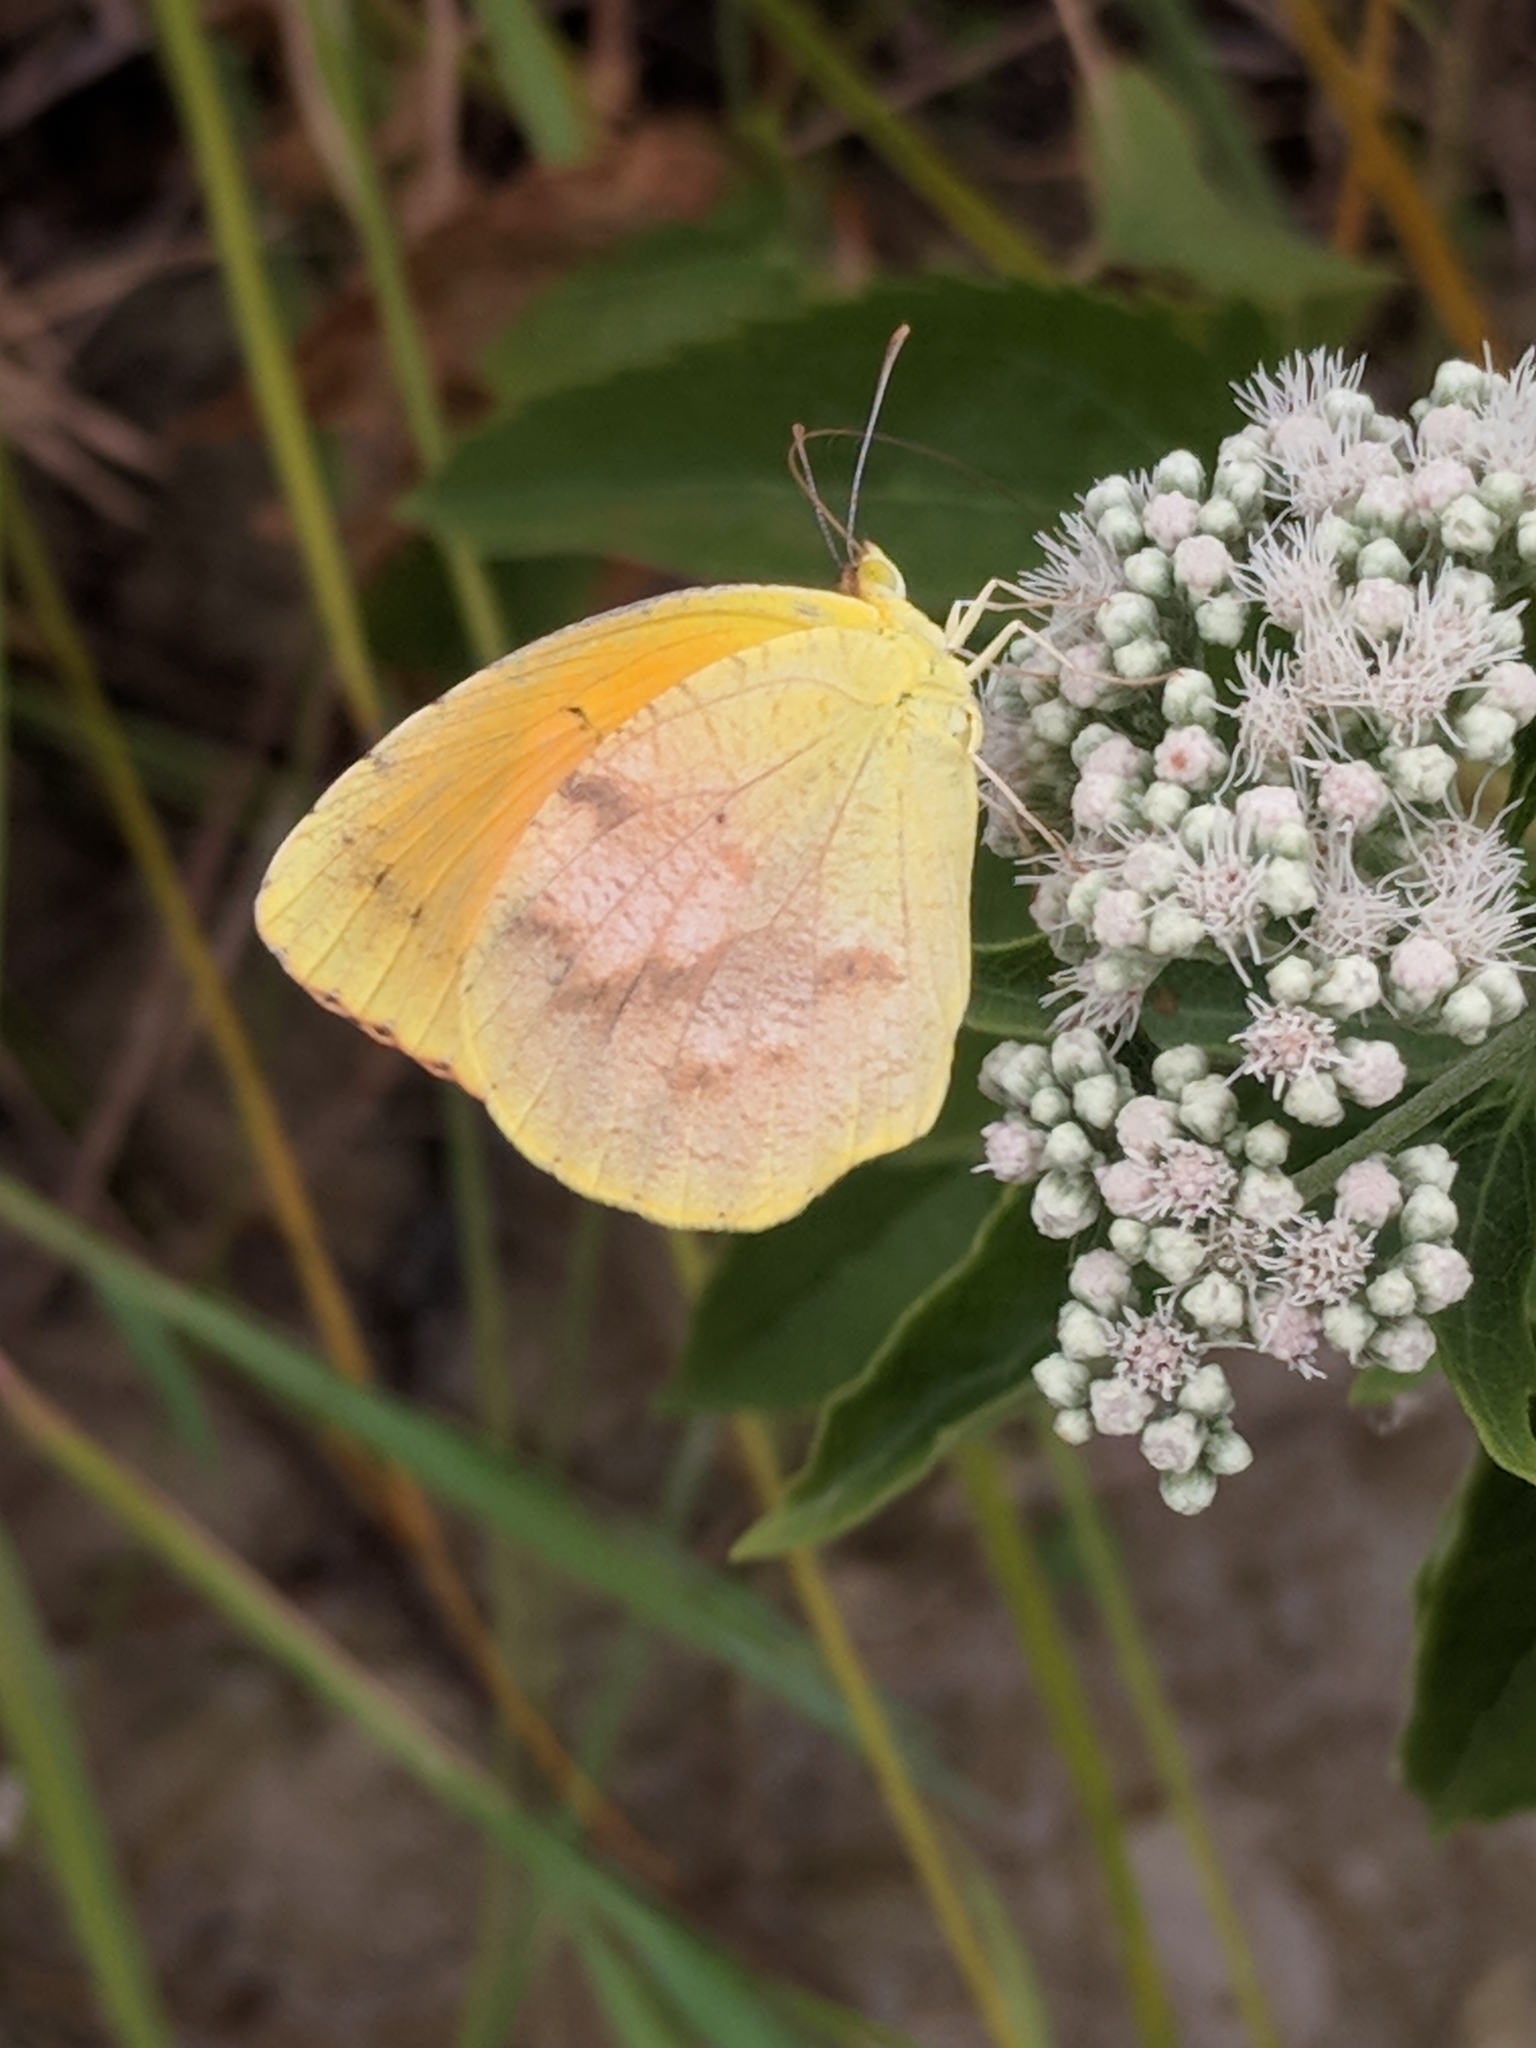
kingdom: Animalia
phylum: Arthropoda
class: Insecta
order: Lepidoptera
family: Pieridae
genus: Abaeis
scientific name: Abaeis nicippe
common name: Sleepy orange
